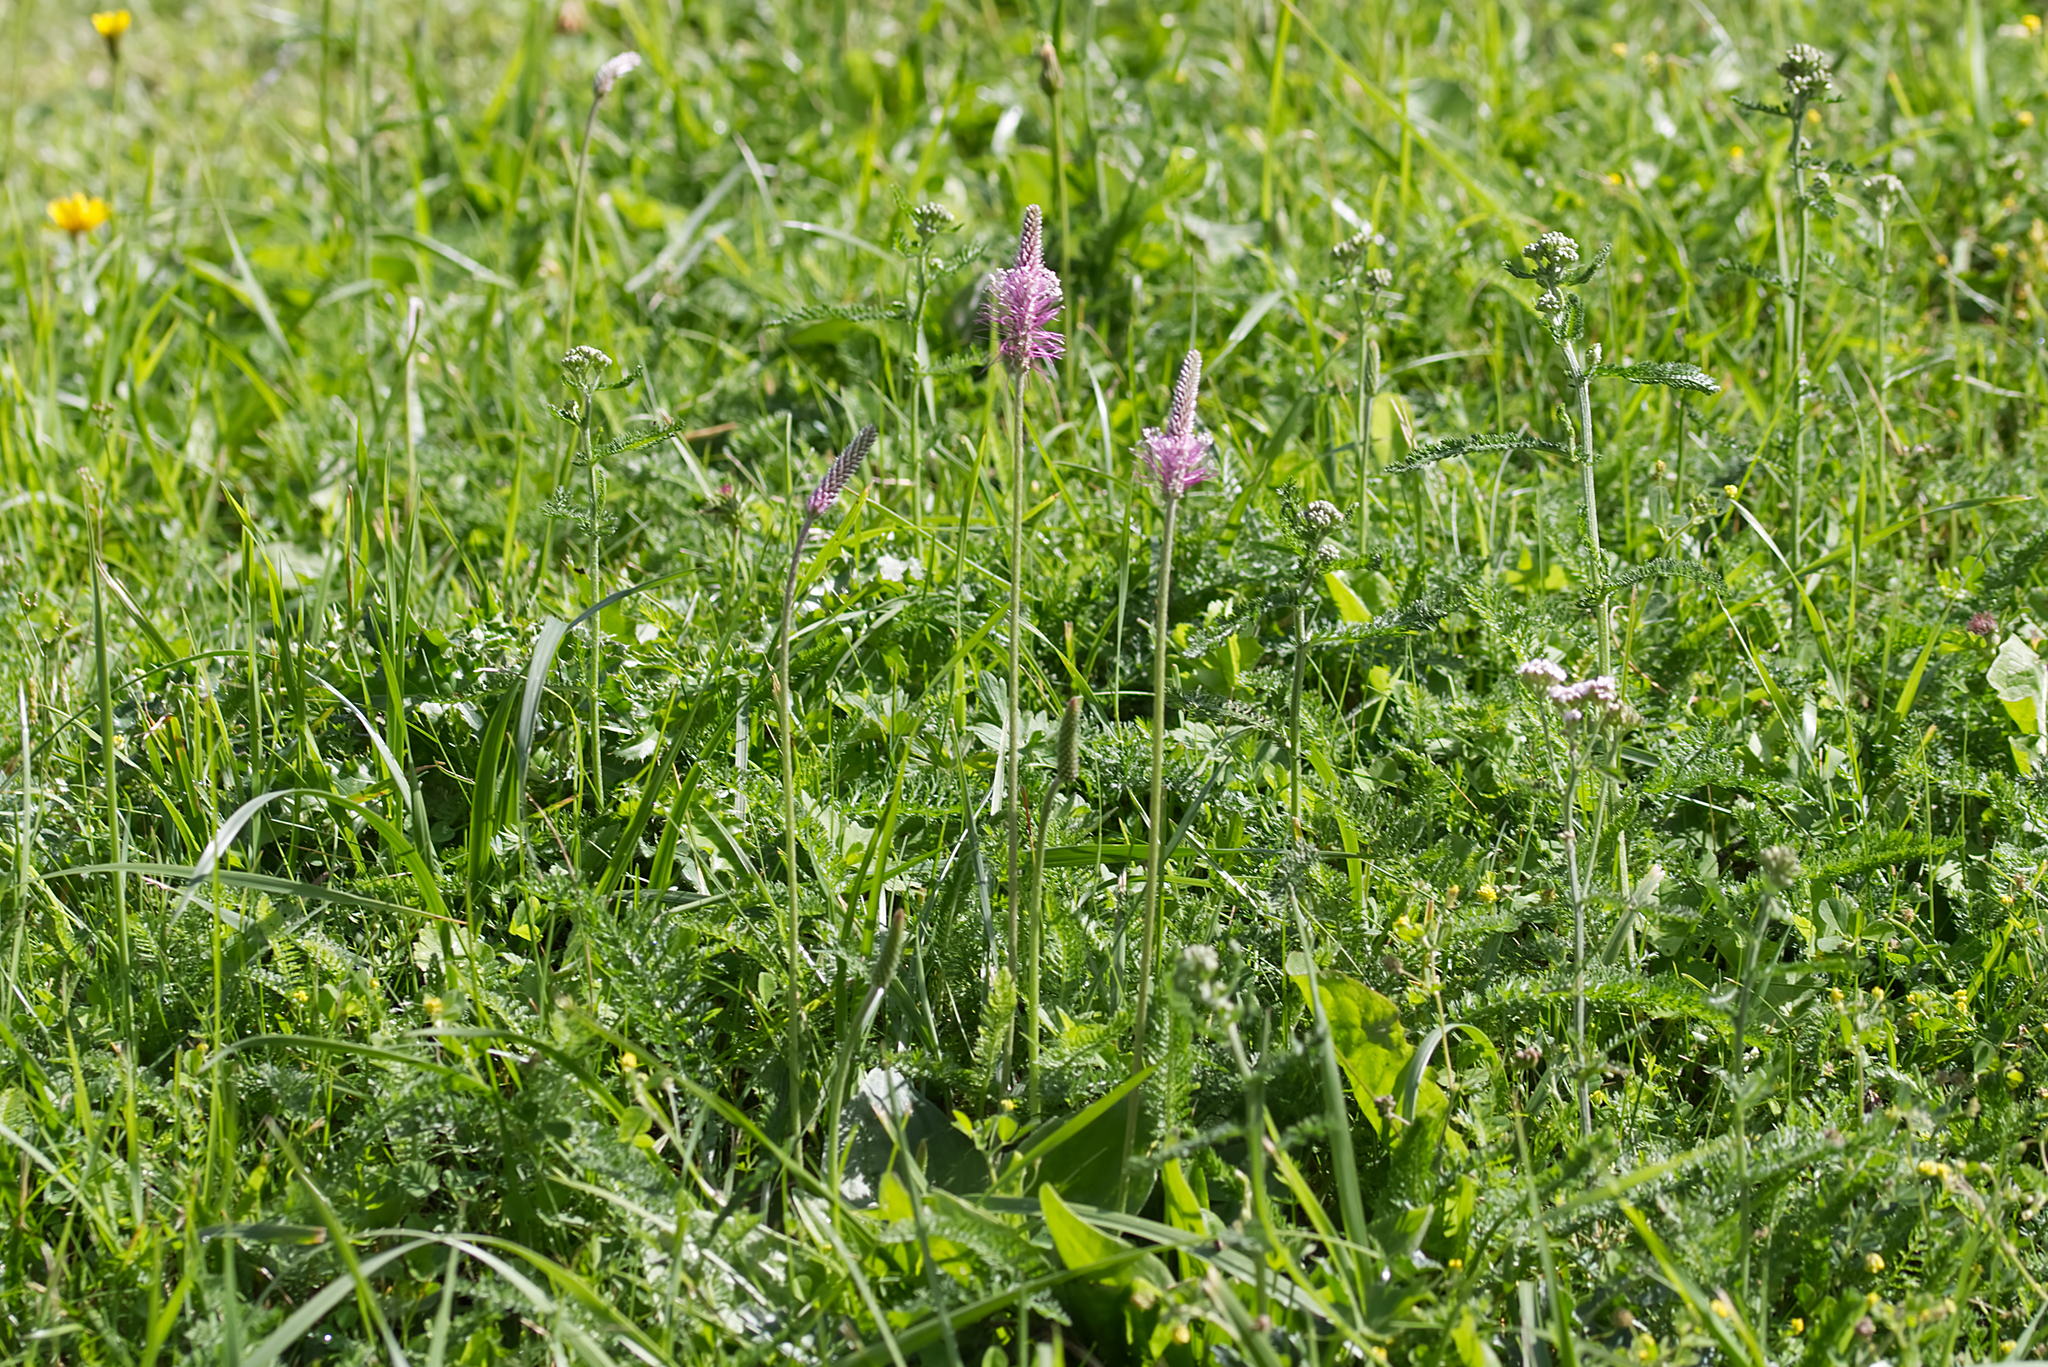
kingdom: Plantae
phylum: Tracheophyta
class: Magnoliopsida
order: Lamiales
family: Plantaginaceae
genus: Plantago
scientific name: Plantago media
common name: Hoary plantain
